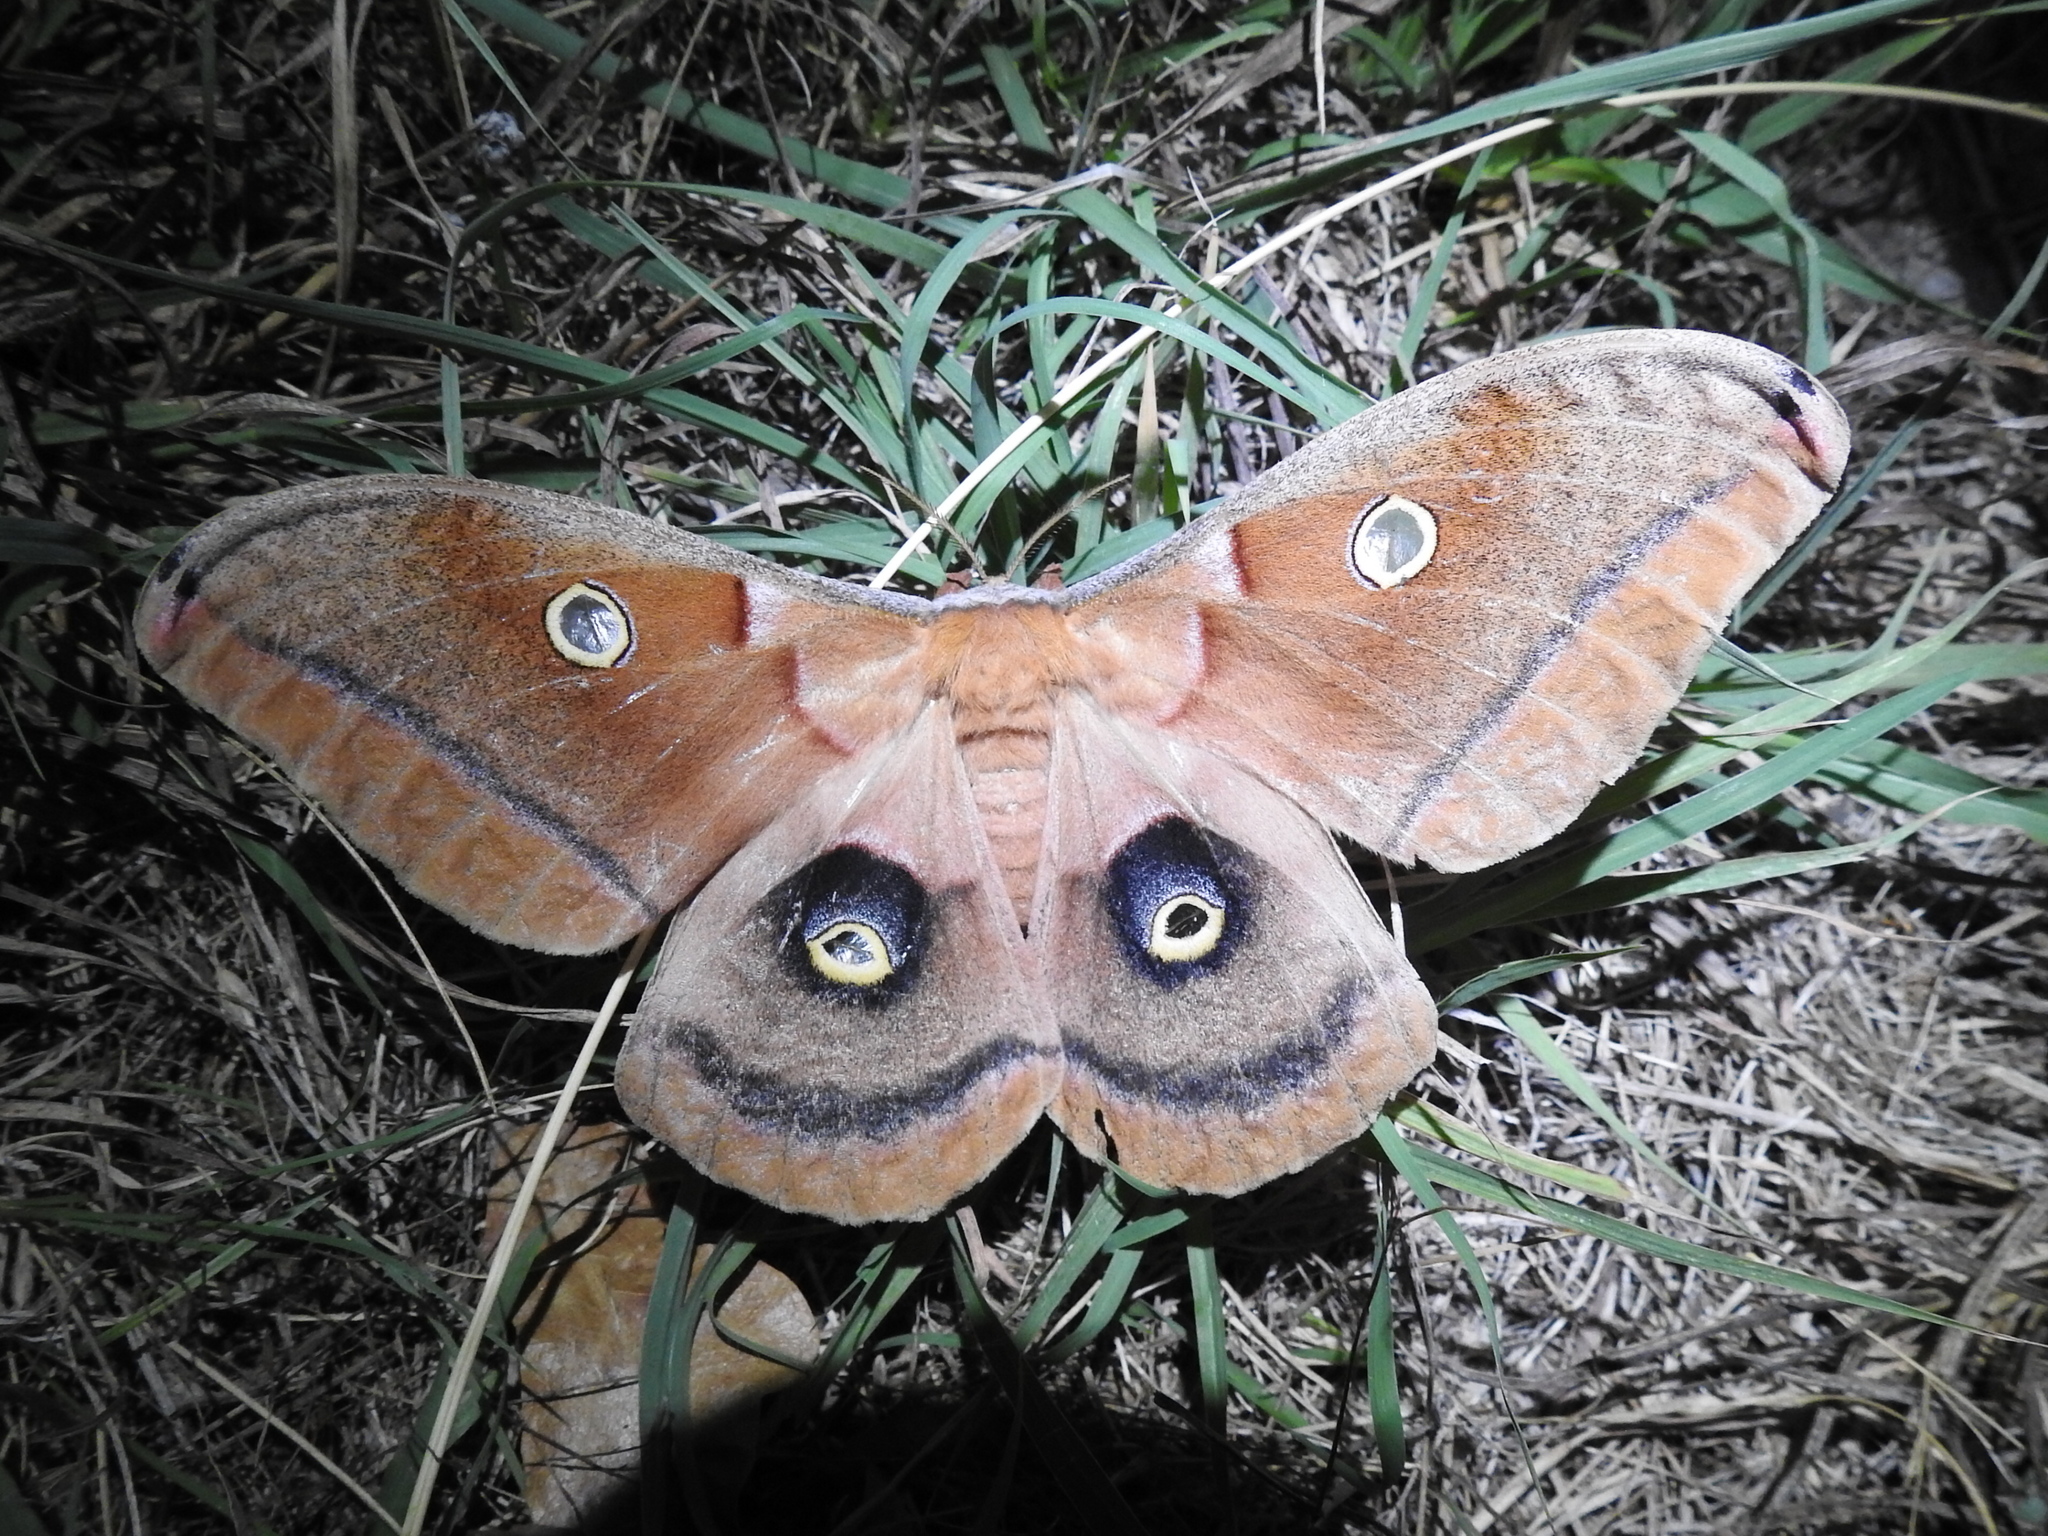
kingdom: Animalia
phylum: Arthropoda
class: Insecta
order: Lepidoptera
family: Saturniidae
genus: Antheraea
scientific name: Antheraea polyphemus
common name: Polyphemus moth
